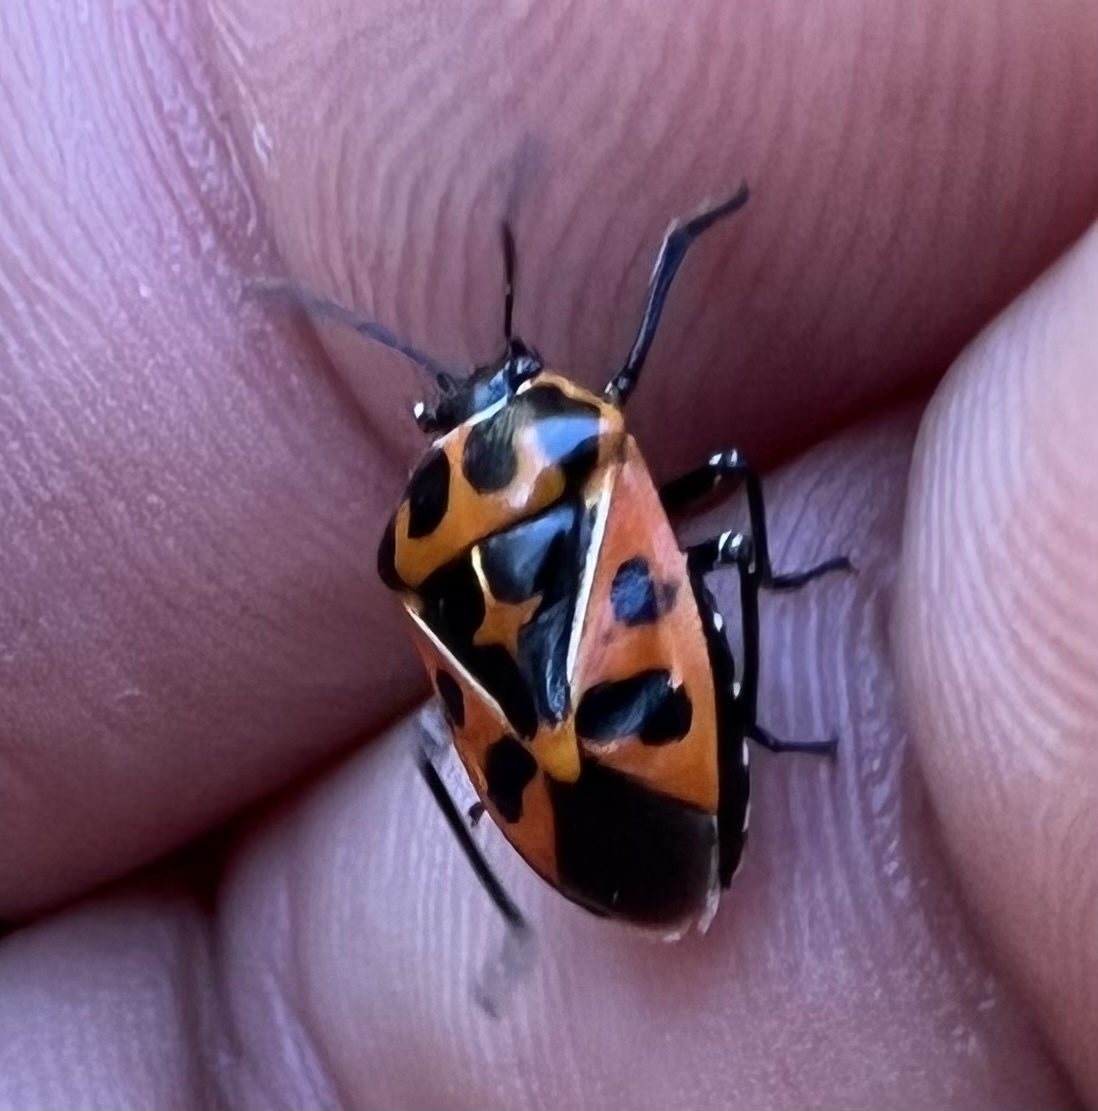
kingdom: Animalia
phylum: Arthropoda
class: Insecta
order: Hemiptera
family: Pentatomidae
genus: Murgantia
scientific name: Murgantia histrionica
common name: Harlequin bug
